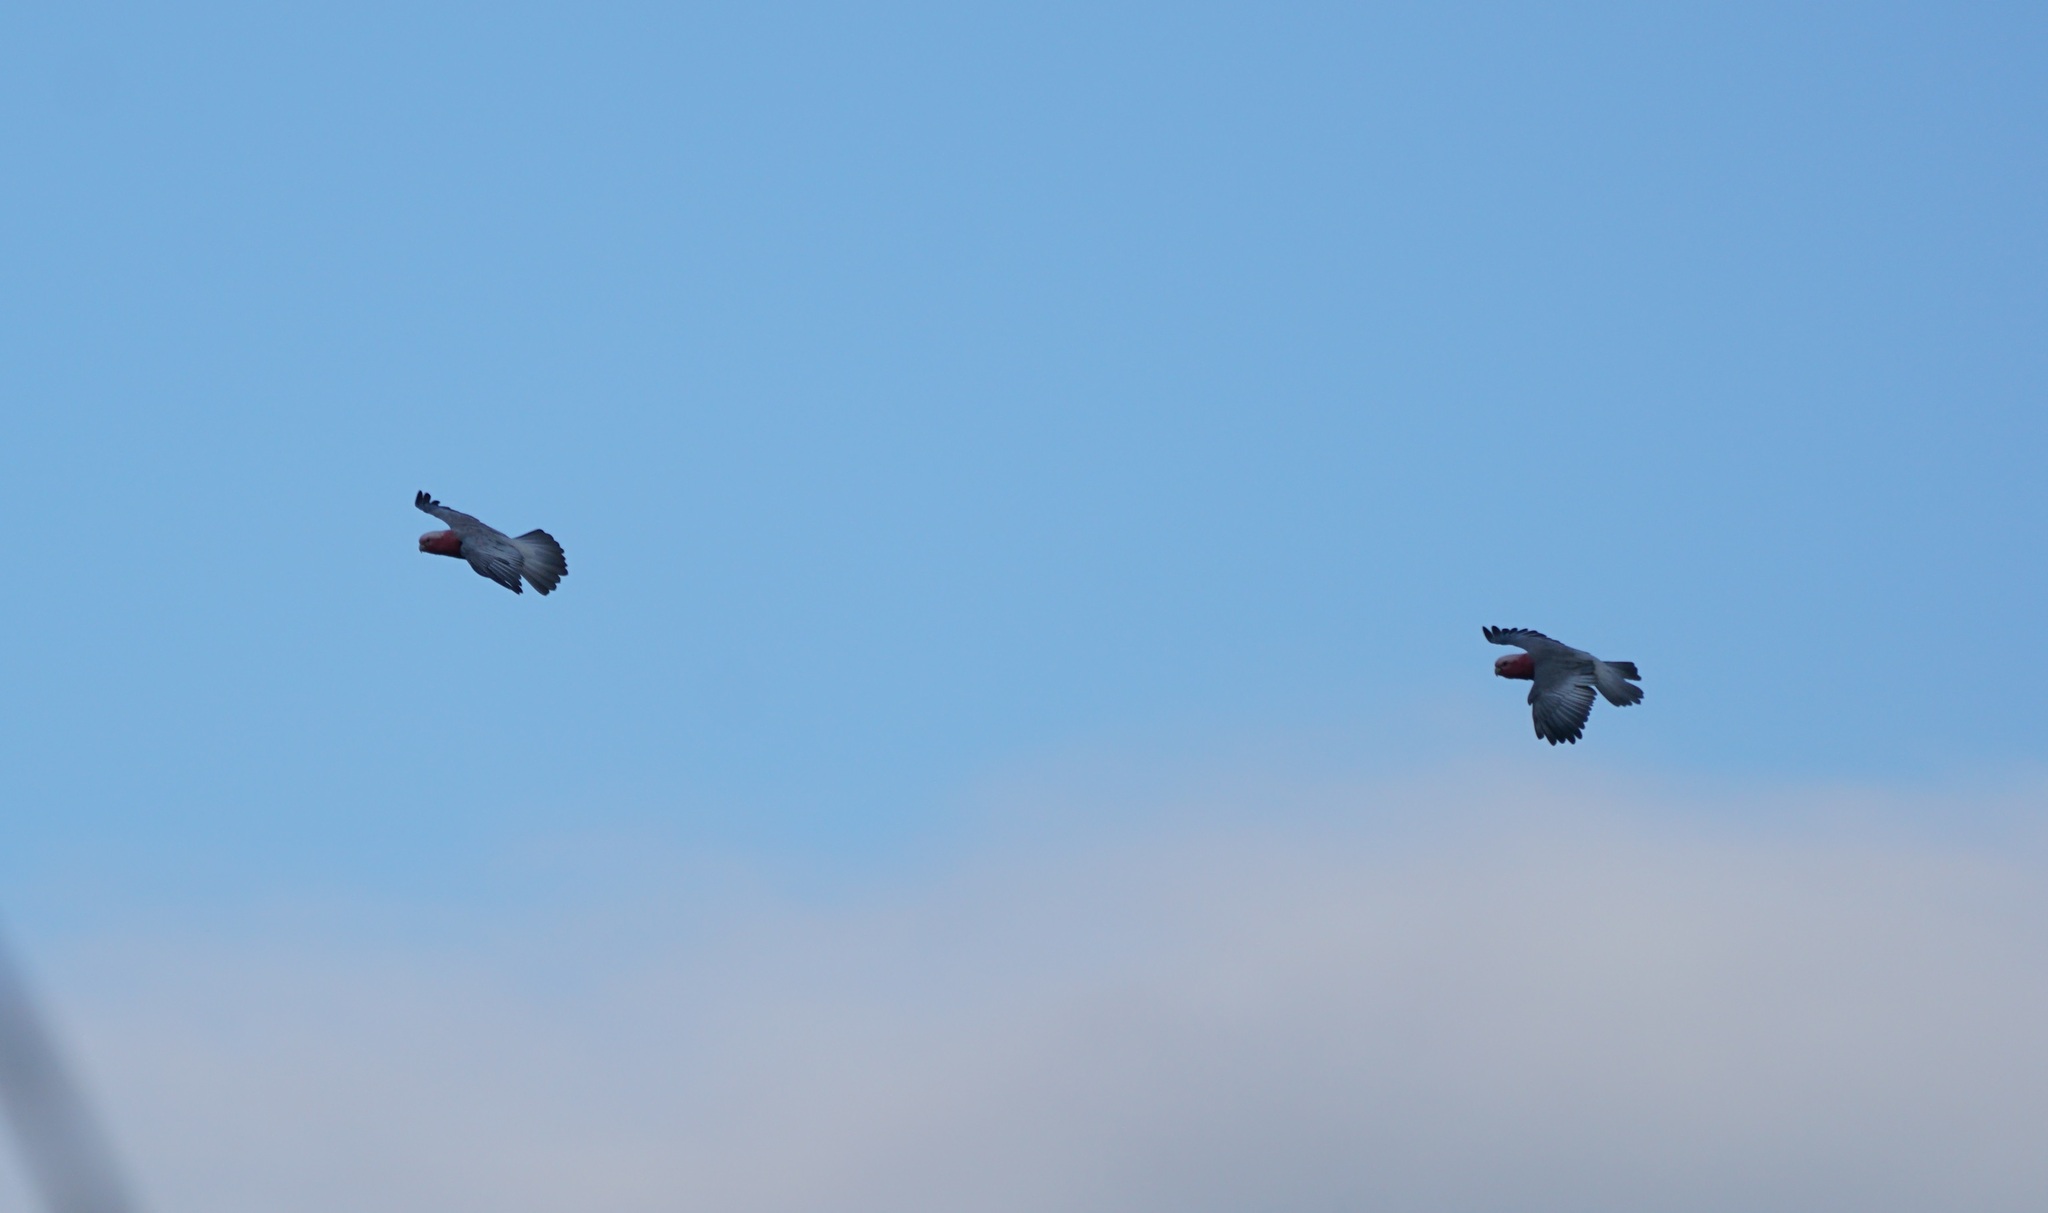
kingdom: Animalia
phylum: Chordata
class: Aves
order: Psittaciformes
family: Psittacidae
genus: Eolophus
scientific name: Eolophus roseicapilla
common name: Galah
